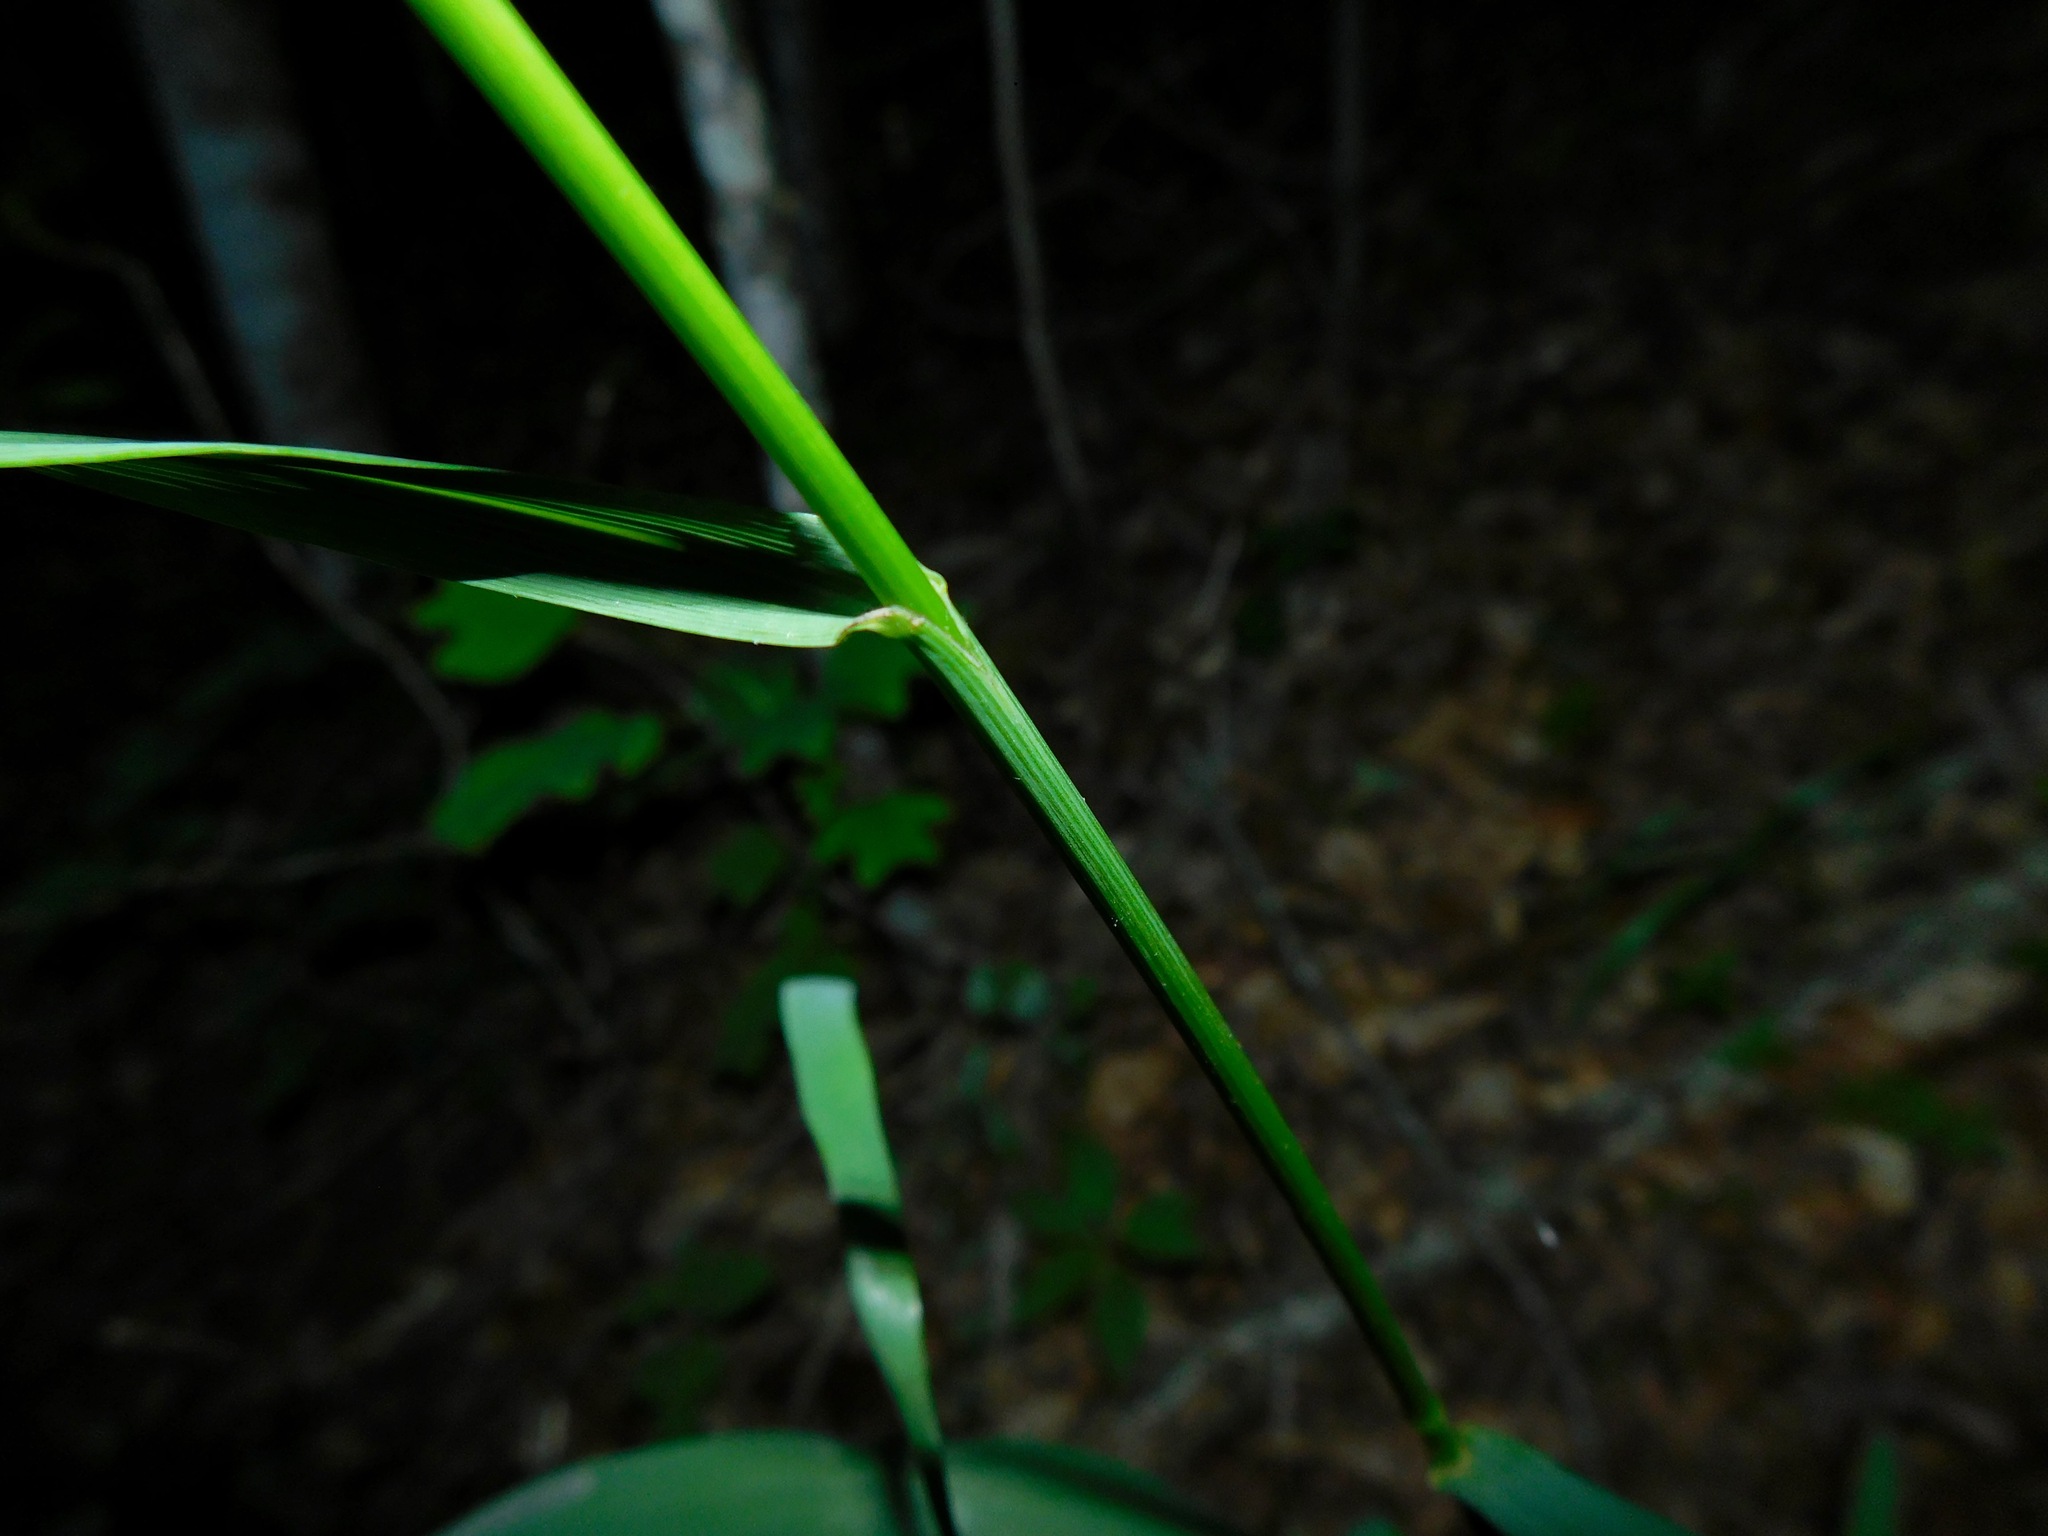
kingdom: Plantae
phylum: Tracheophyta
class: Liliopsida
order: Poales
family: Poaceae
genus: Bromus
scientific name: Bromus pubescens
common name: Hairy wood brome grass
